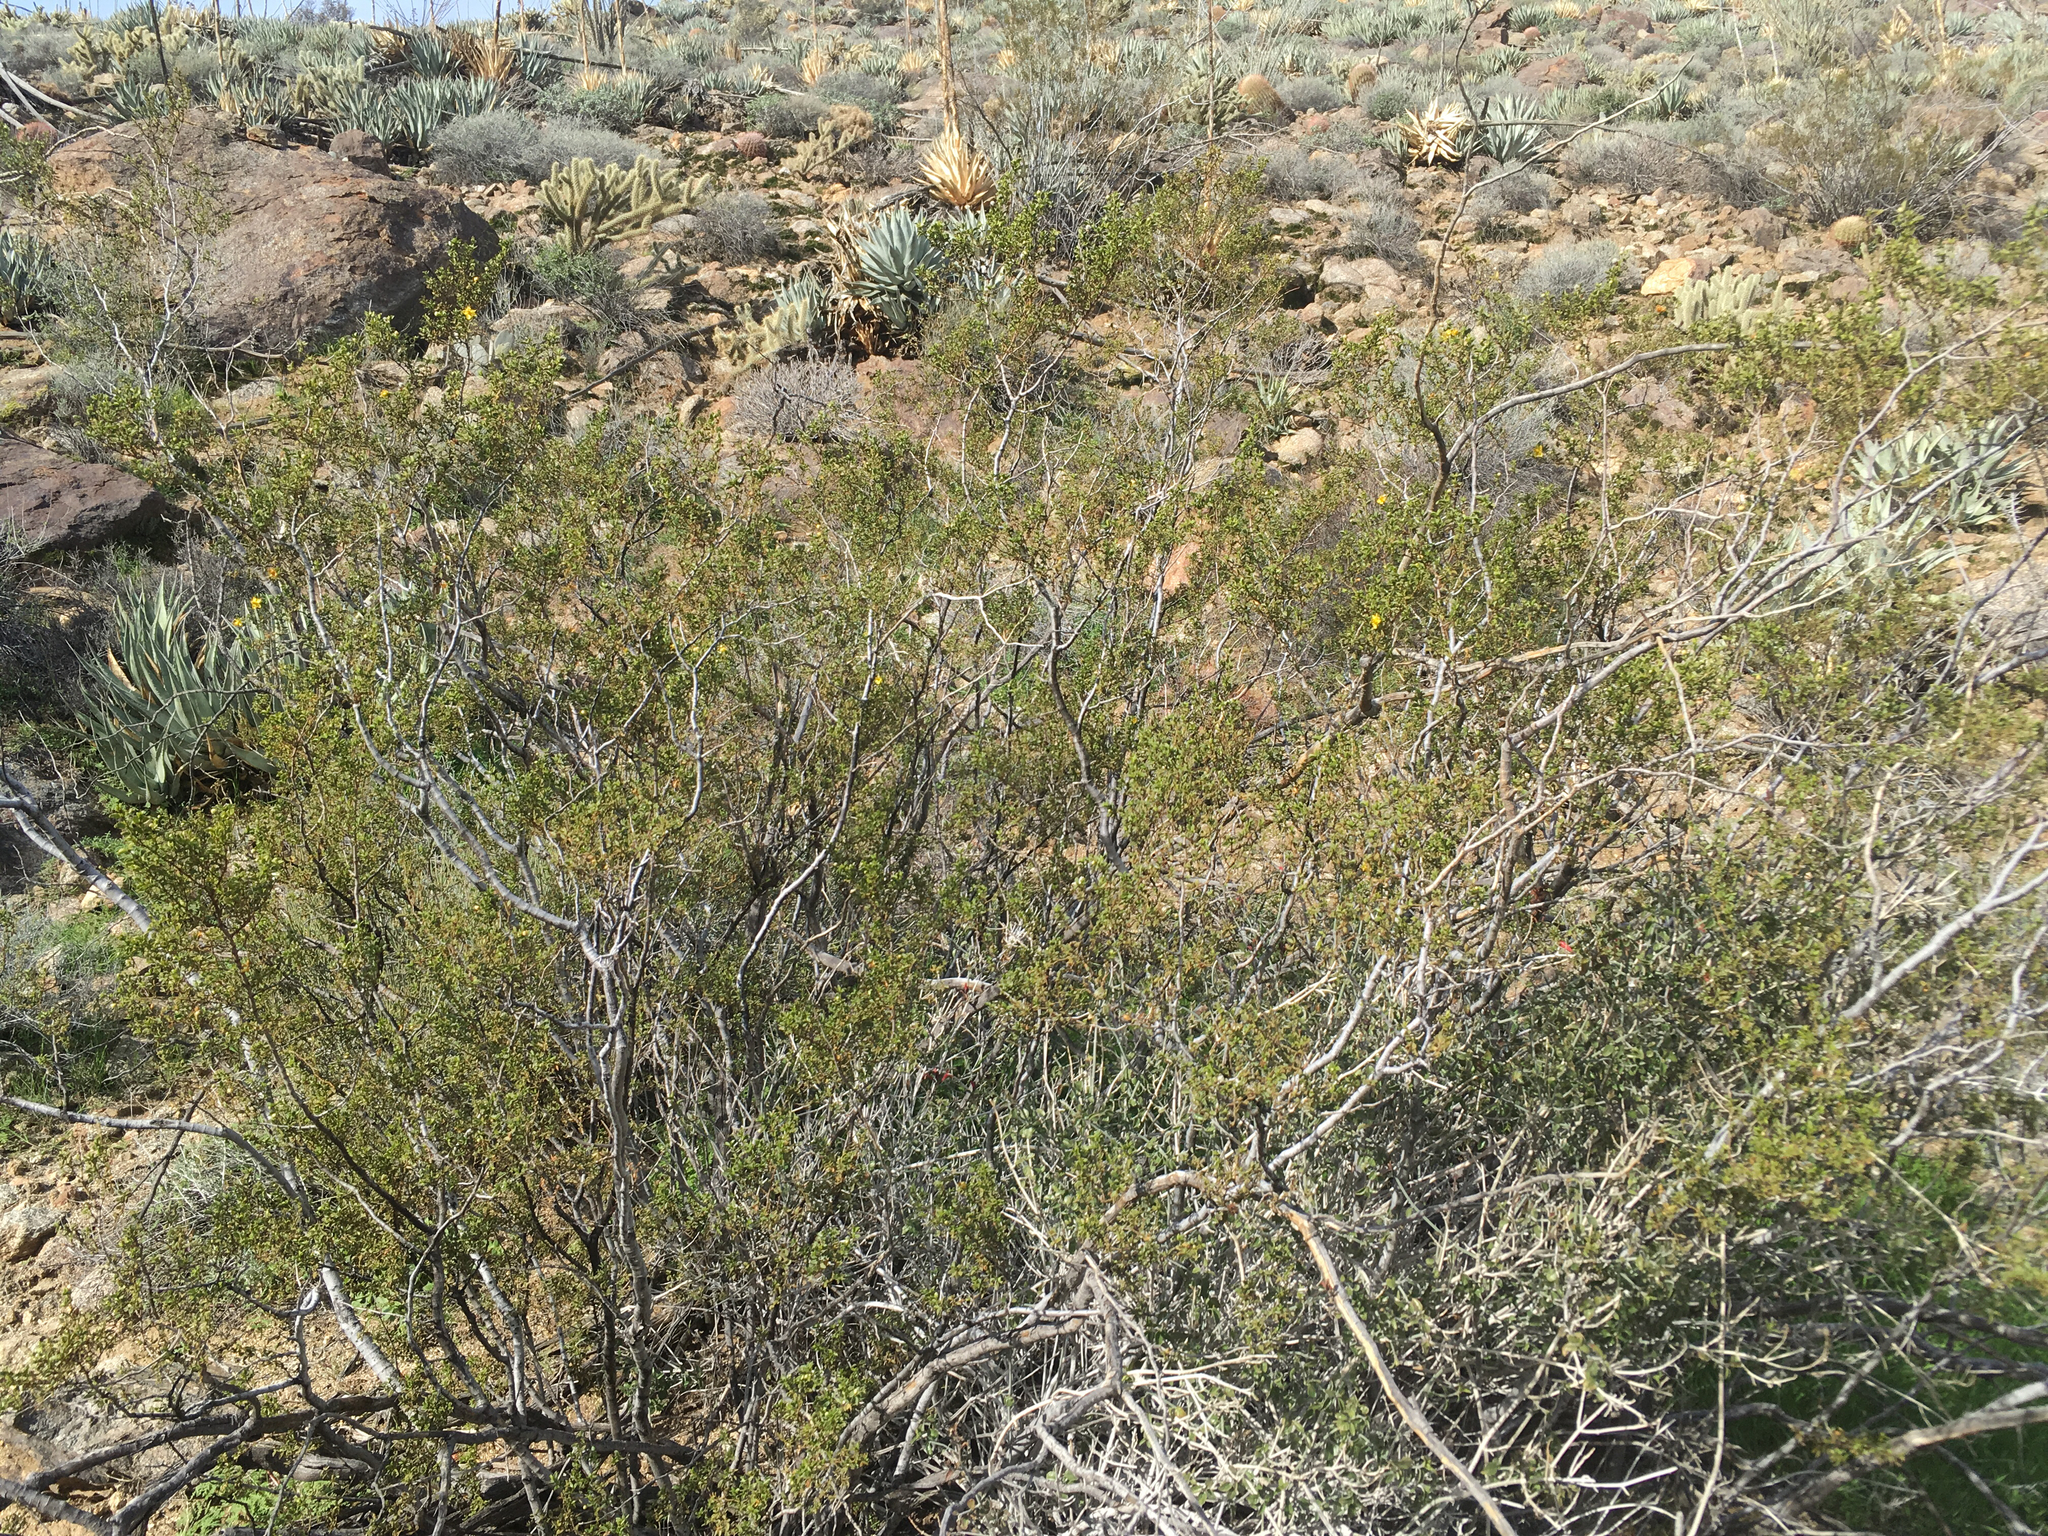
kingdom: Plantae
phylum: Tracheophyta
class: Magnoliopsida
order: Zygophyllales
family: Zygophyllaceae
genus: Larrea
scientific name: Larrea tridentata
